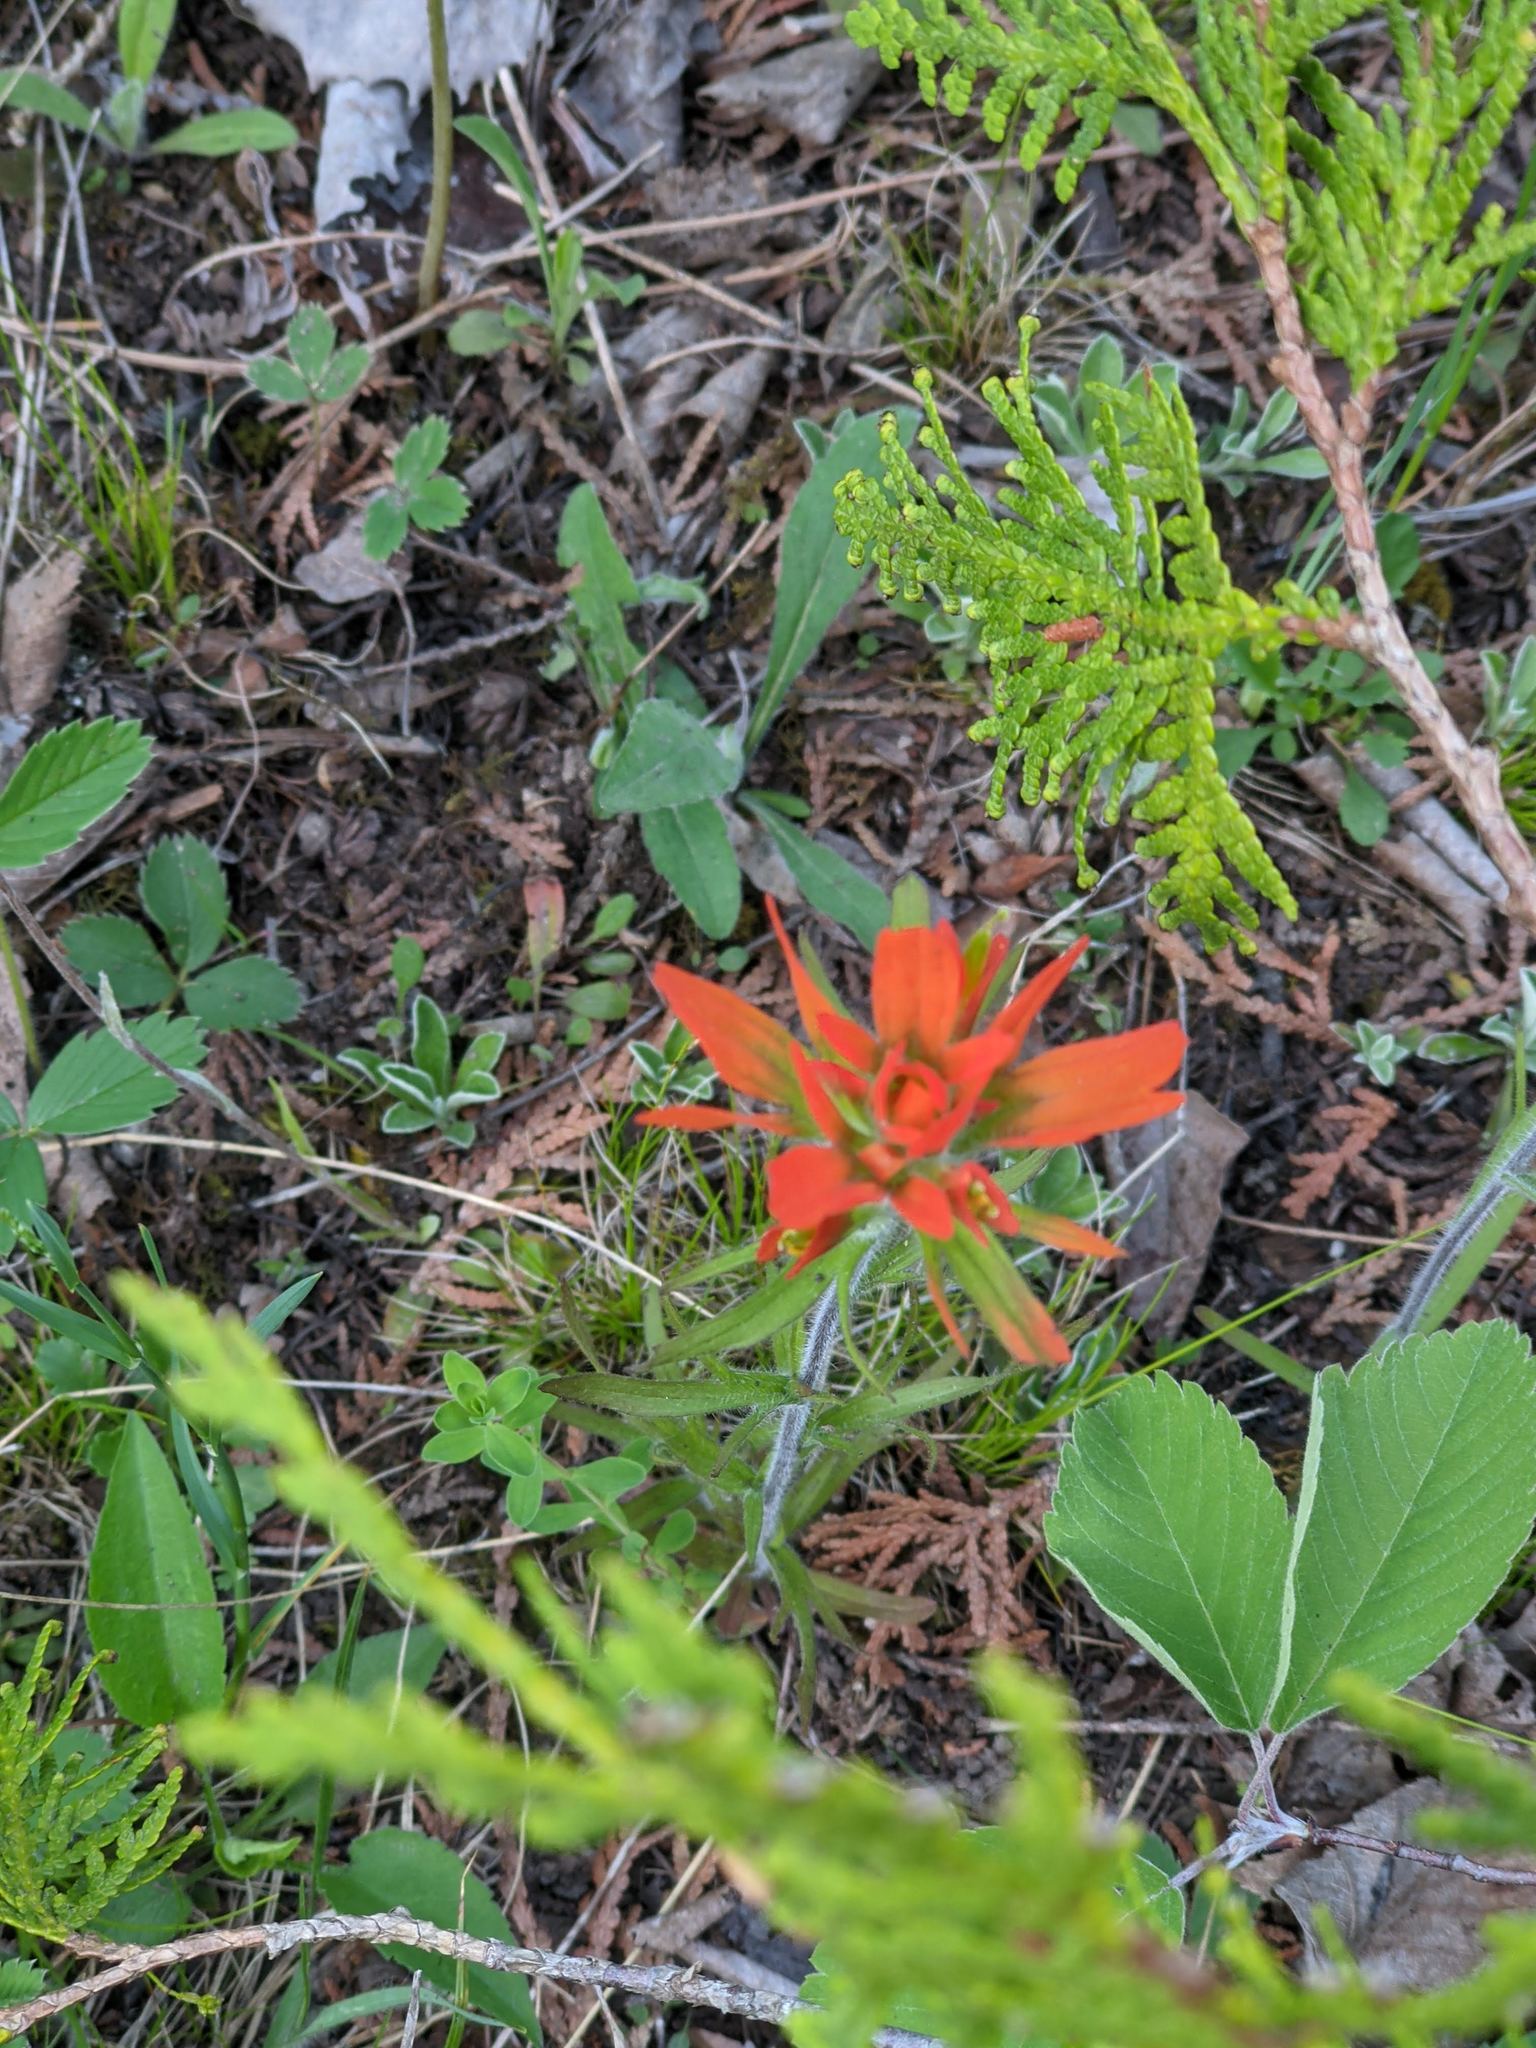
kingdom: Plantae
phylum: Tracheophyta
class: Magnoliopsida
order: Lamiales
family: Orobanchaceae
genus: Castilleja
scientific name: Castilleja coccinea
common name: Scarlet paintbrush
